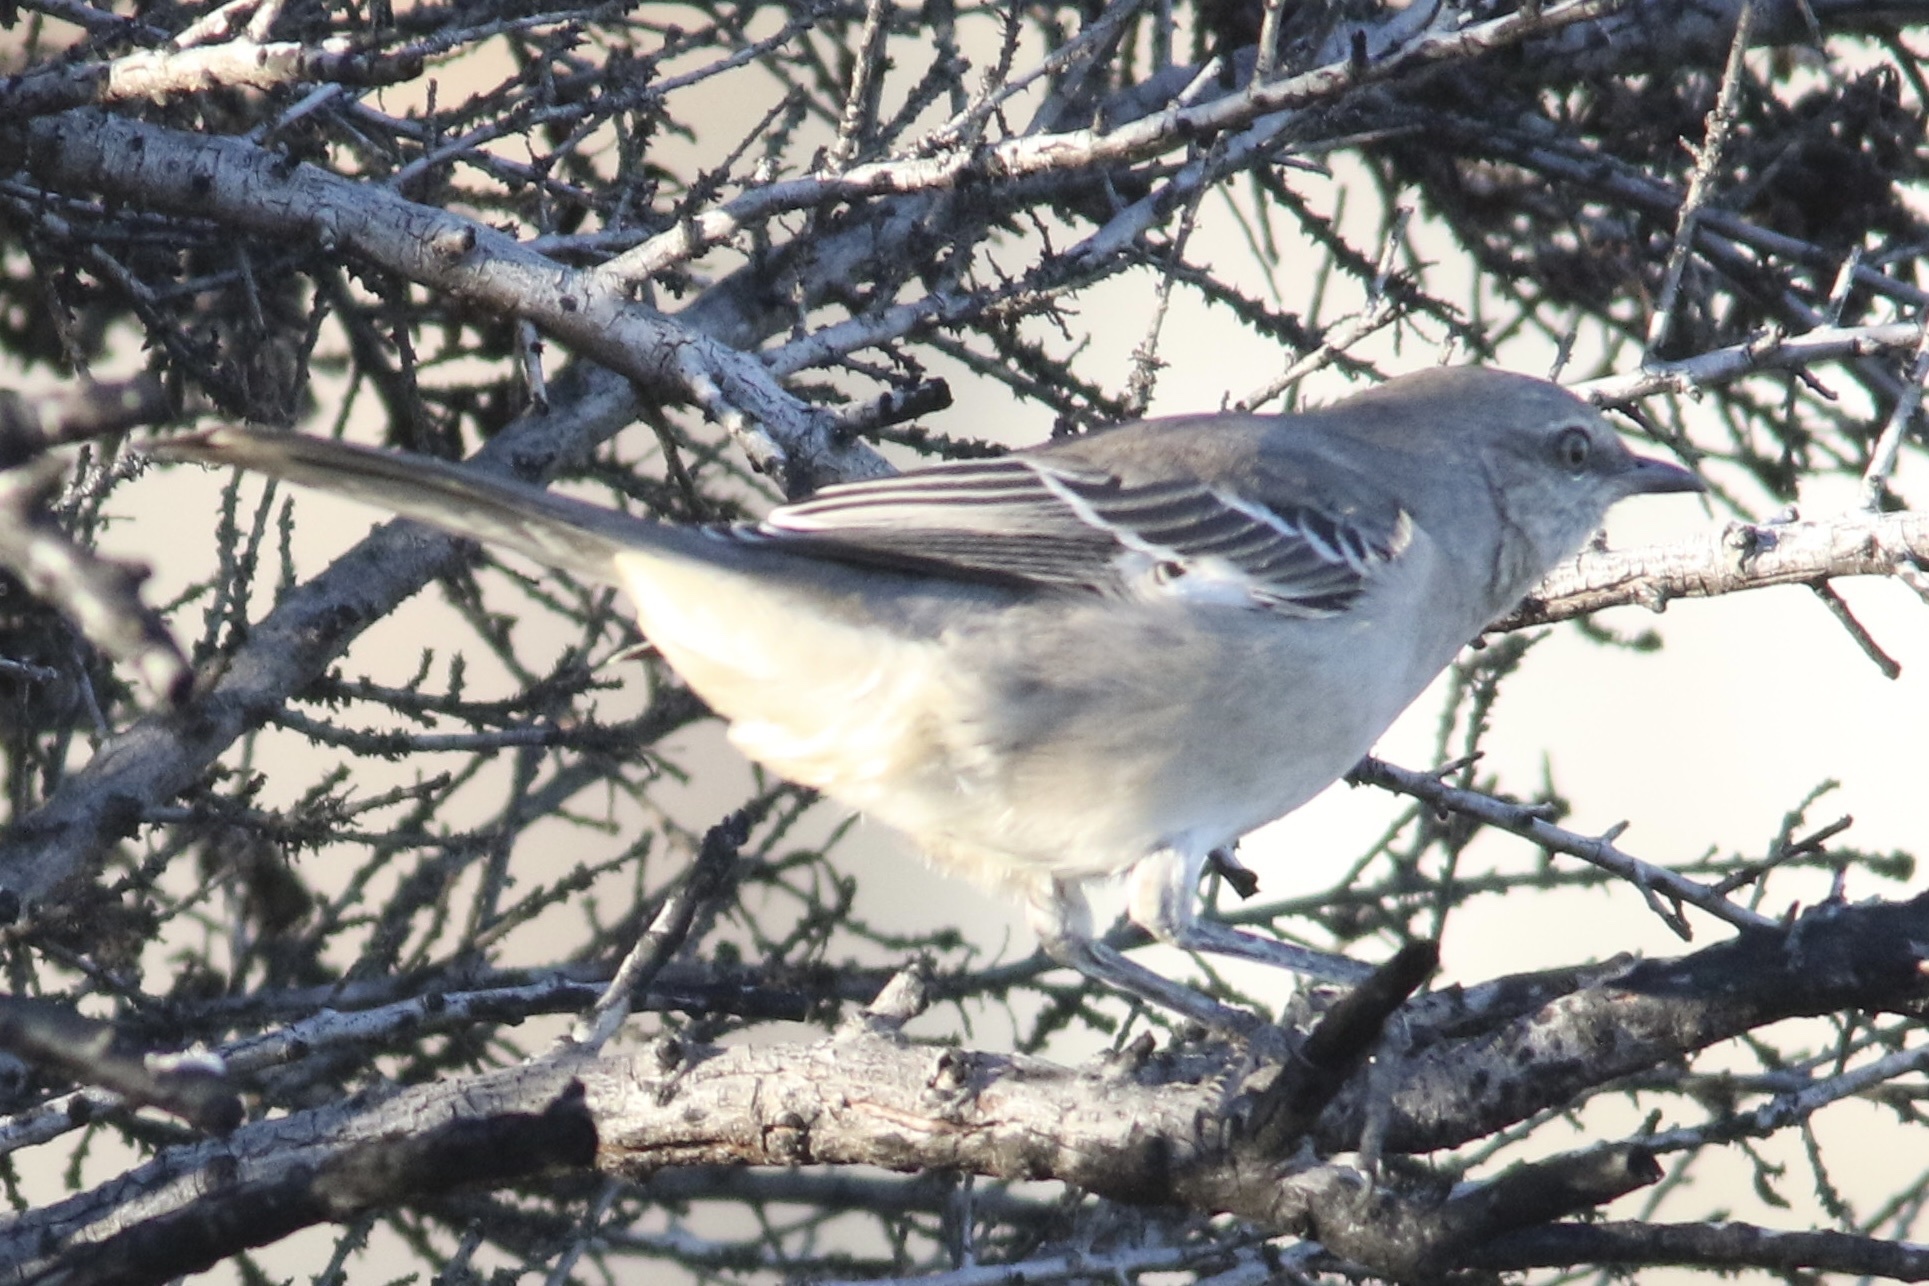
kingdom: Animalia
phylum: Chordata
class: Aves
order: Passeriformes
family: Mimidae
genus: Mimus
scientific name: Mimus polyglottos
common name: Northern mockingbird
